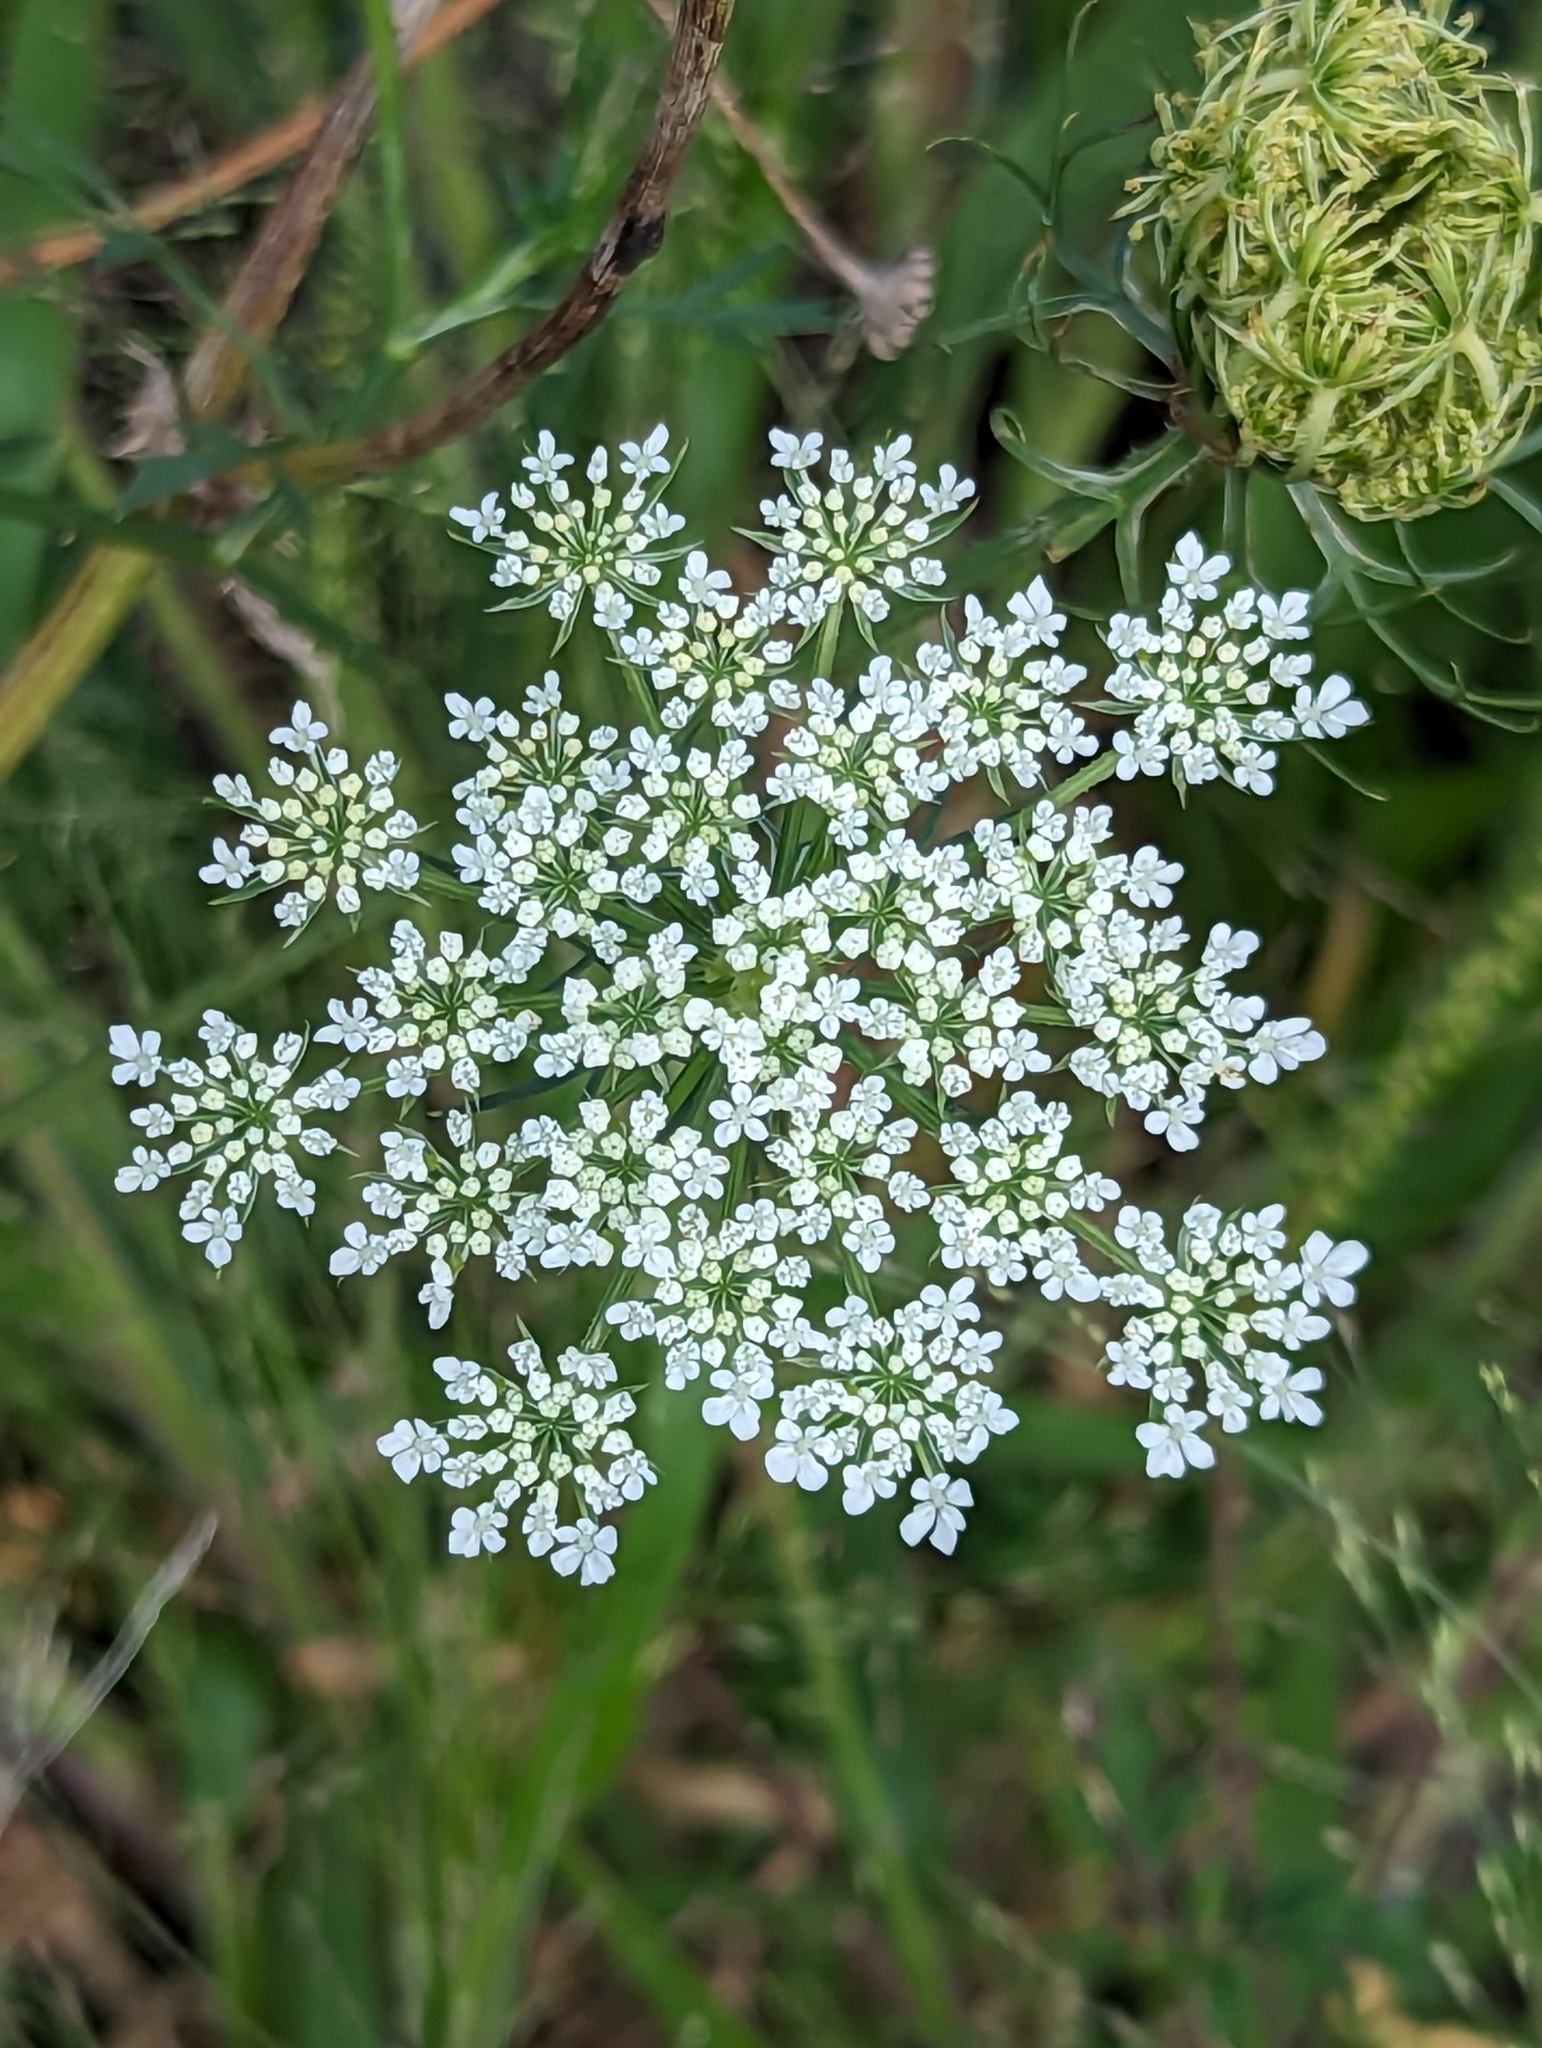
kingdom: Plantae
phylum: Tracheophyta
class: Magnoliopsida
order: Apiales
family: Apiaceae
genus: Daucus
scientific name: Daucus carota
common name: Wild carrot
